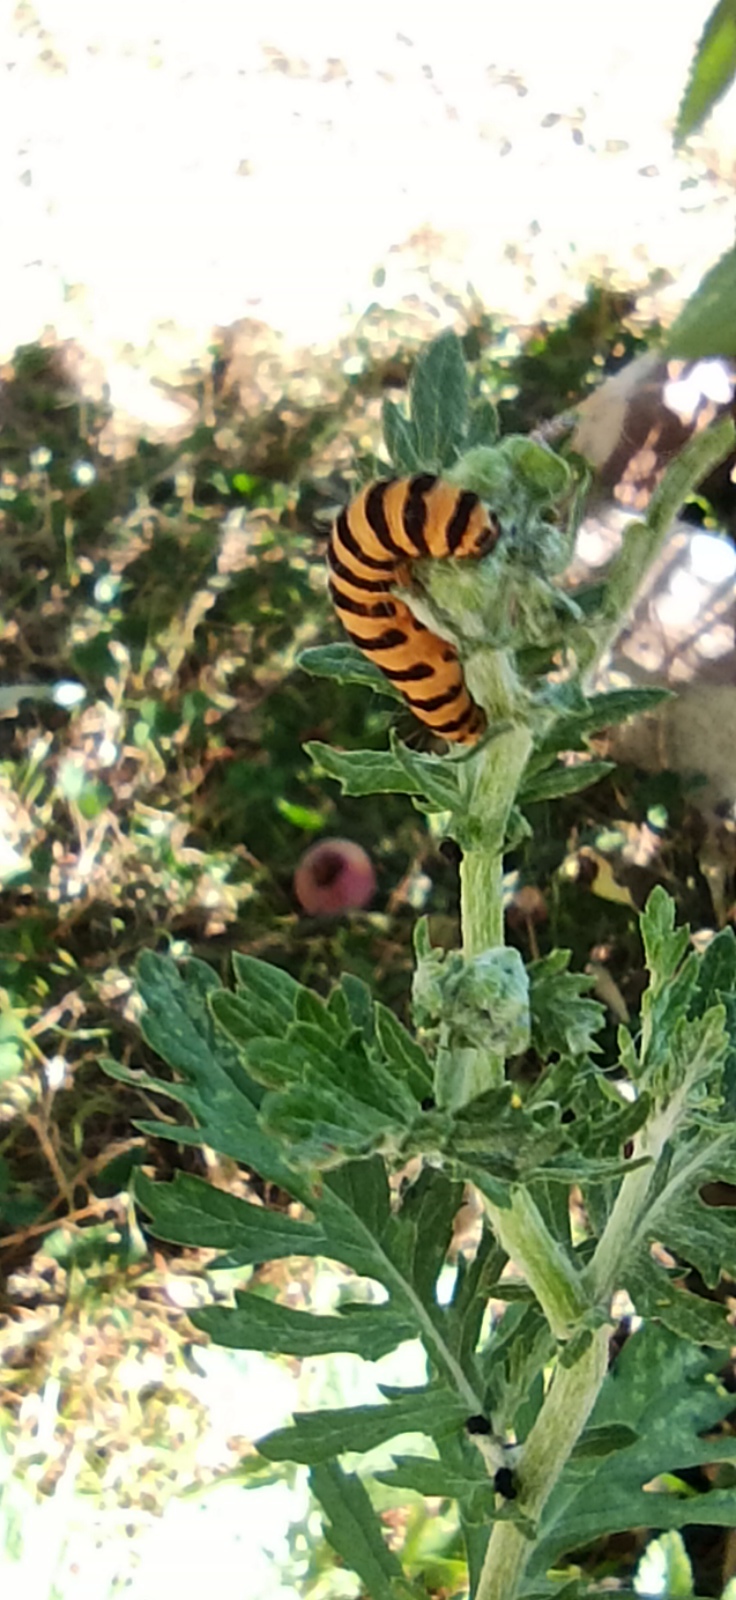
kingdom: Animalia
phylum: Arthropoda
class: Insecta
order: Lepidoptera
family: Erebidae
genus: Tyria
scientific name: Tyria jacobaeae
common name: Cinnabar
